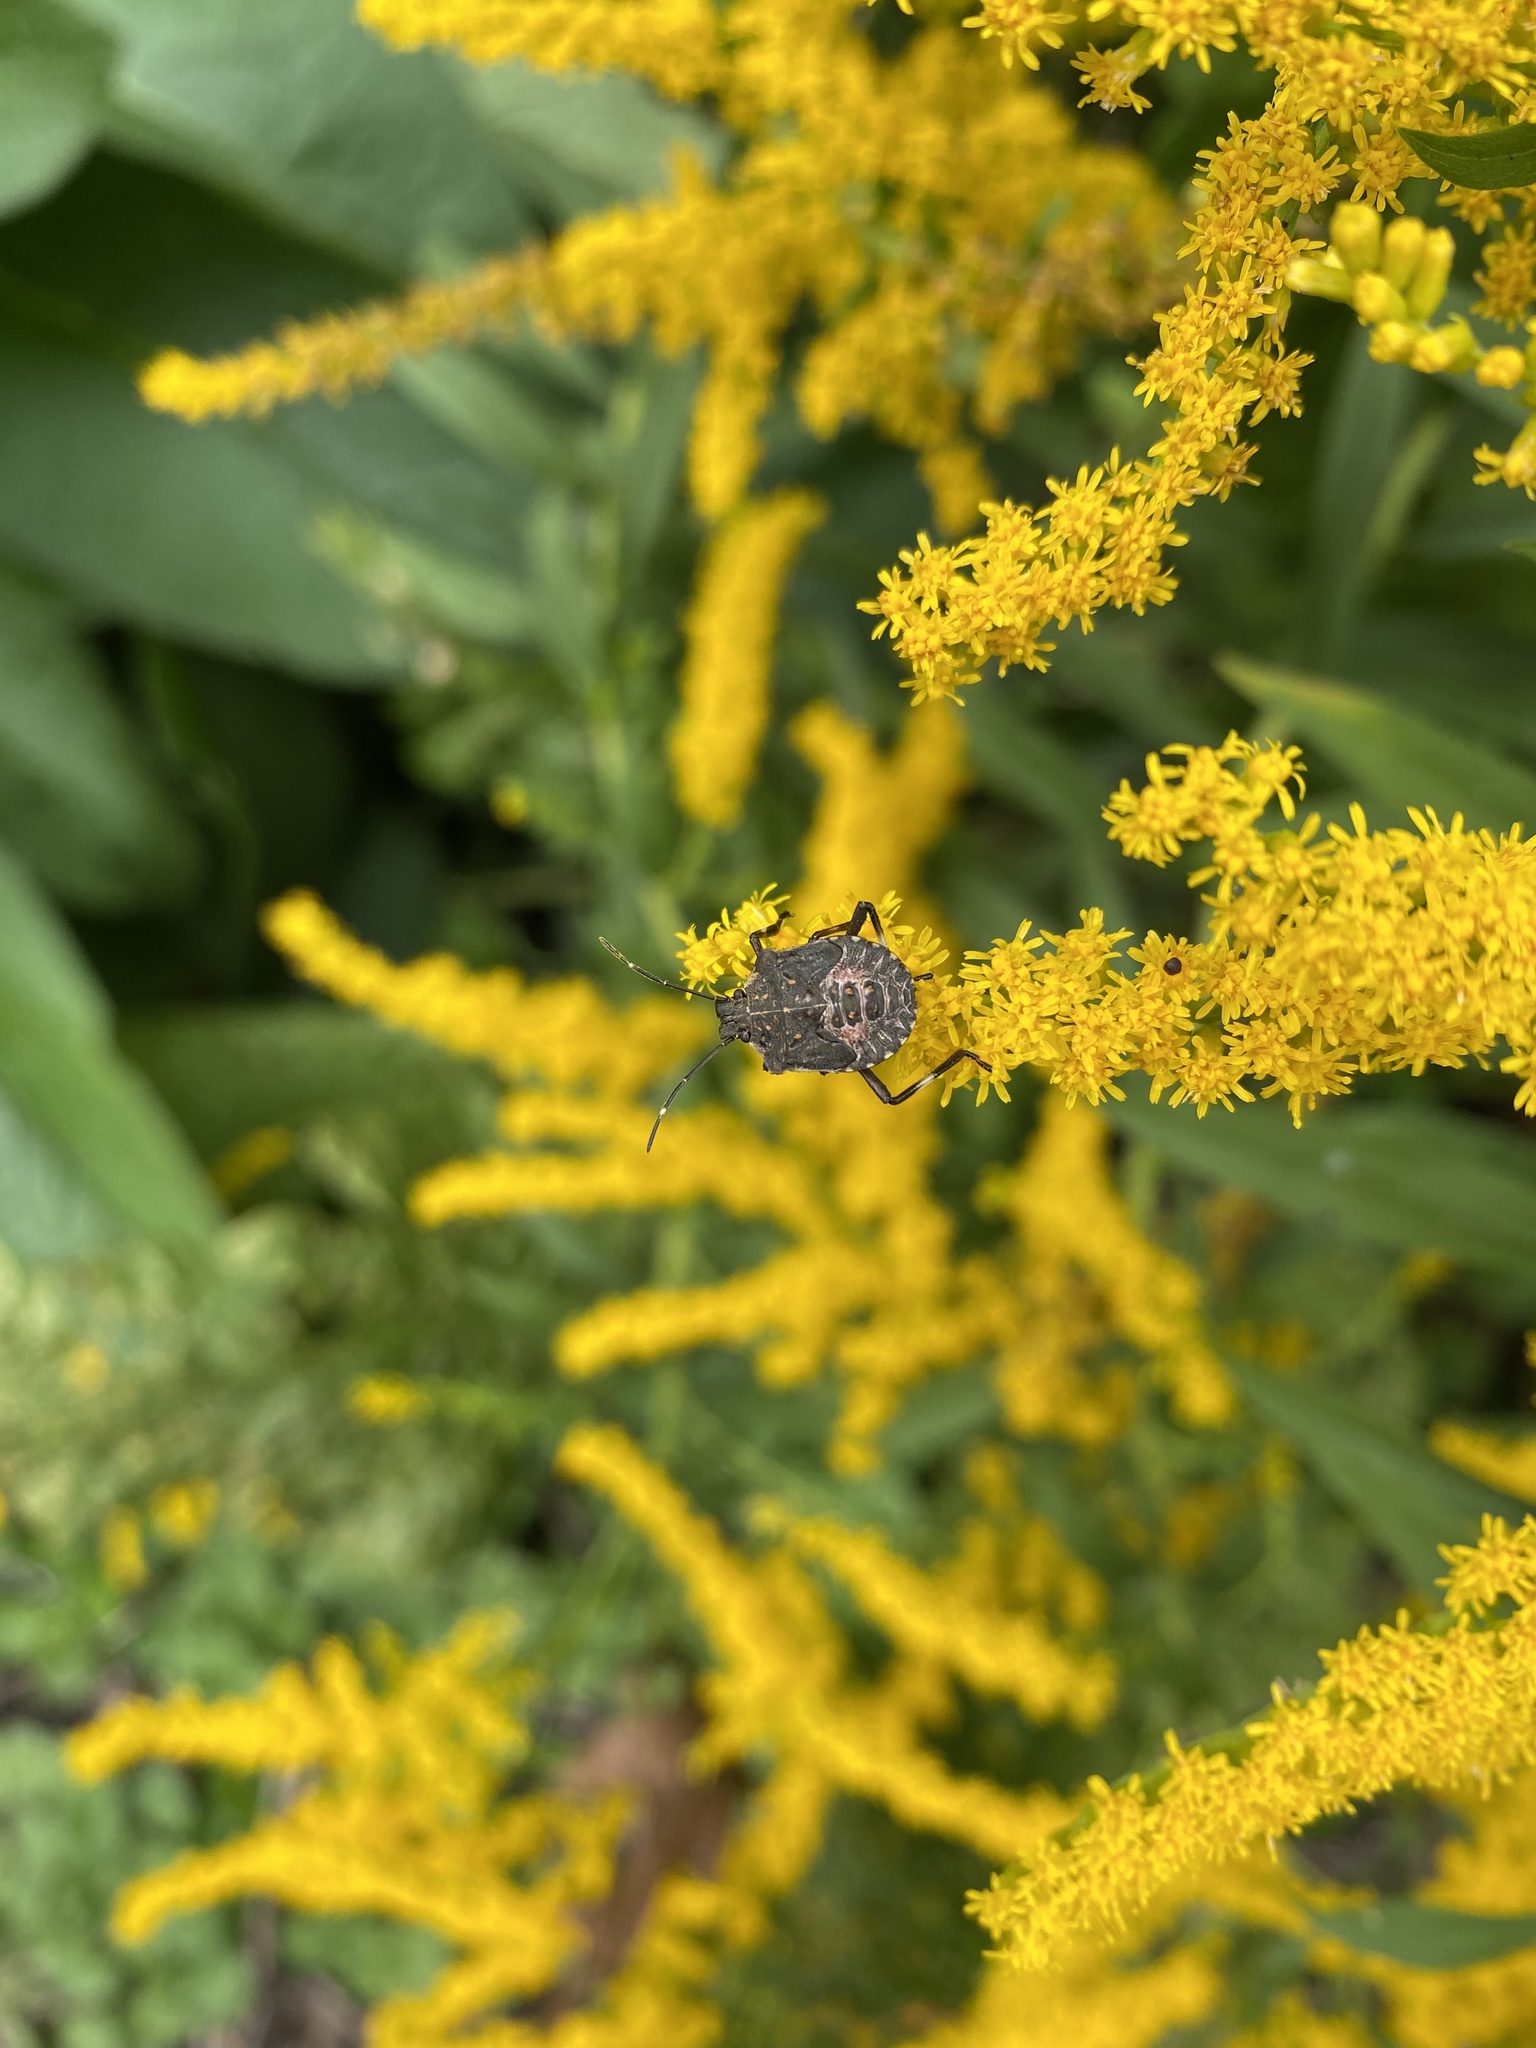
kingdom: Animalia
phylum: Arthropoda
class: Insecta
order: Hemiptera
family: Pentatomidae
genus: Halyomorpha
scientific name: Halyomorpha halys
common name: Brown marmorated stink bug
